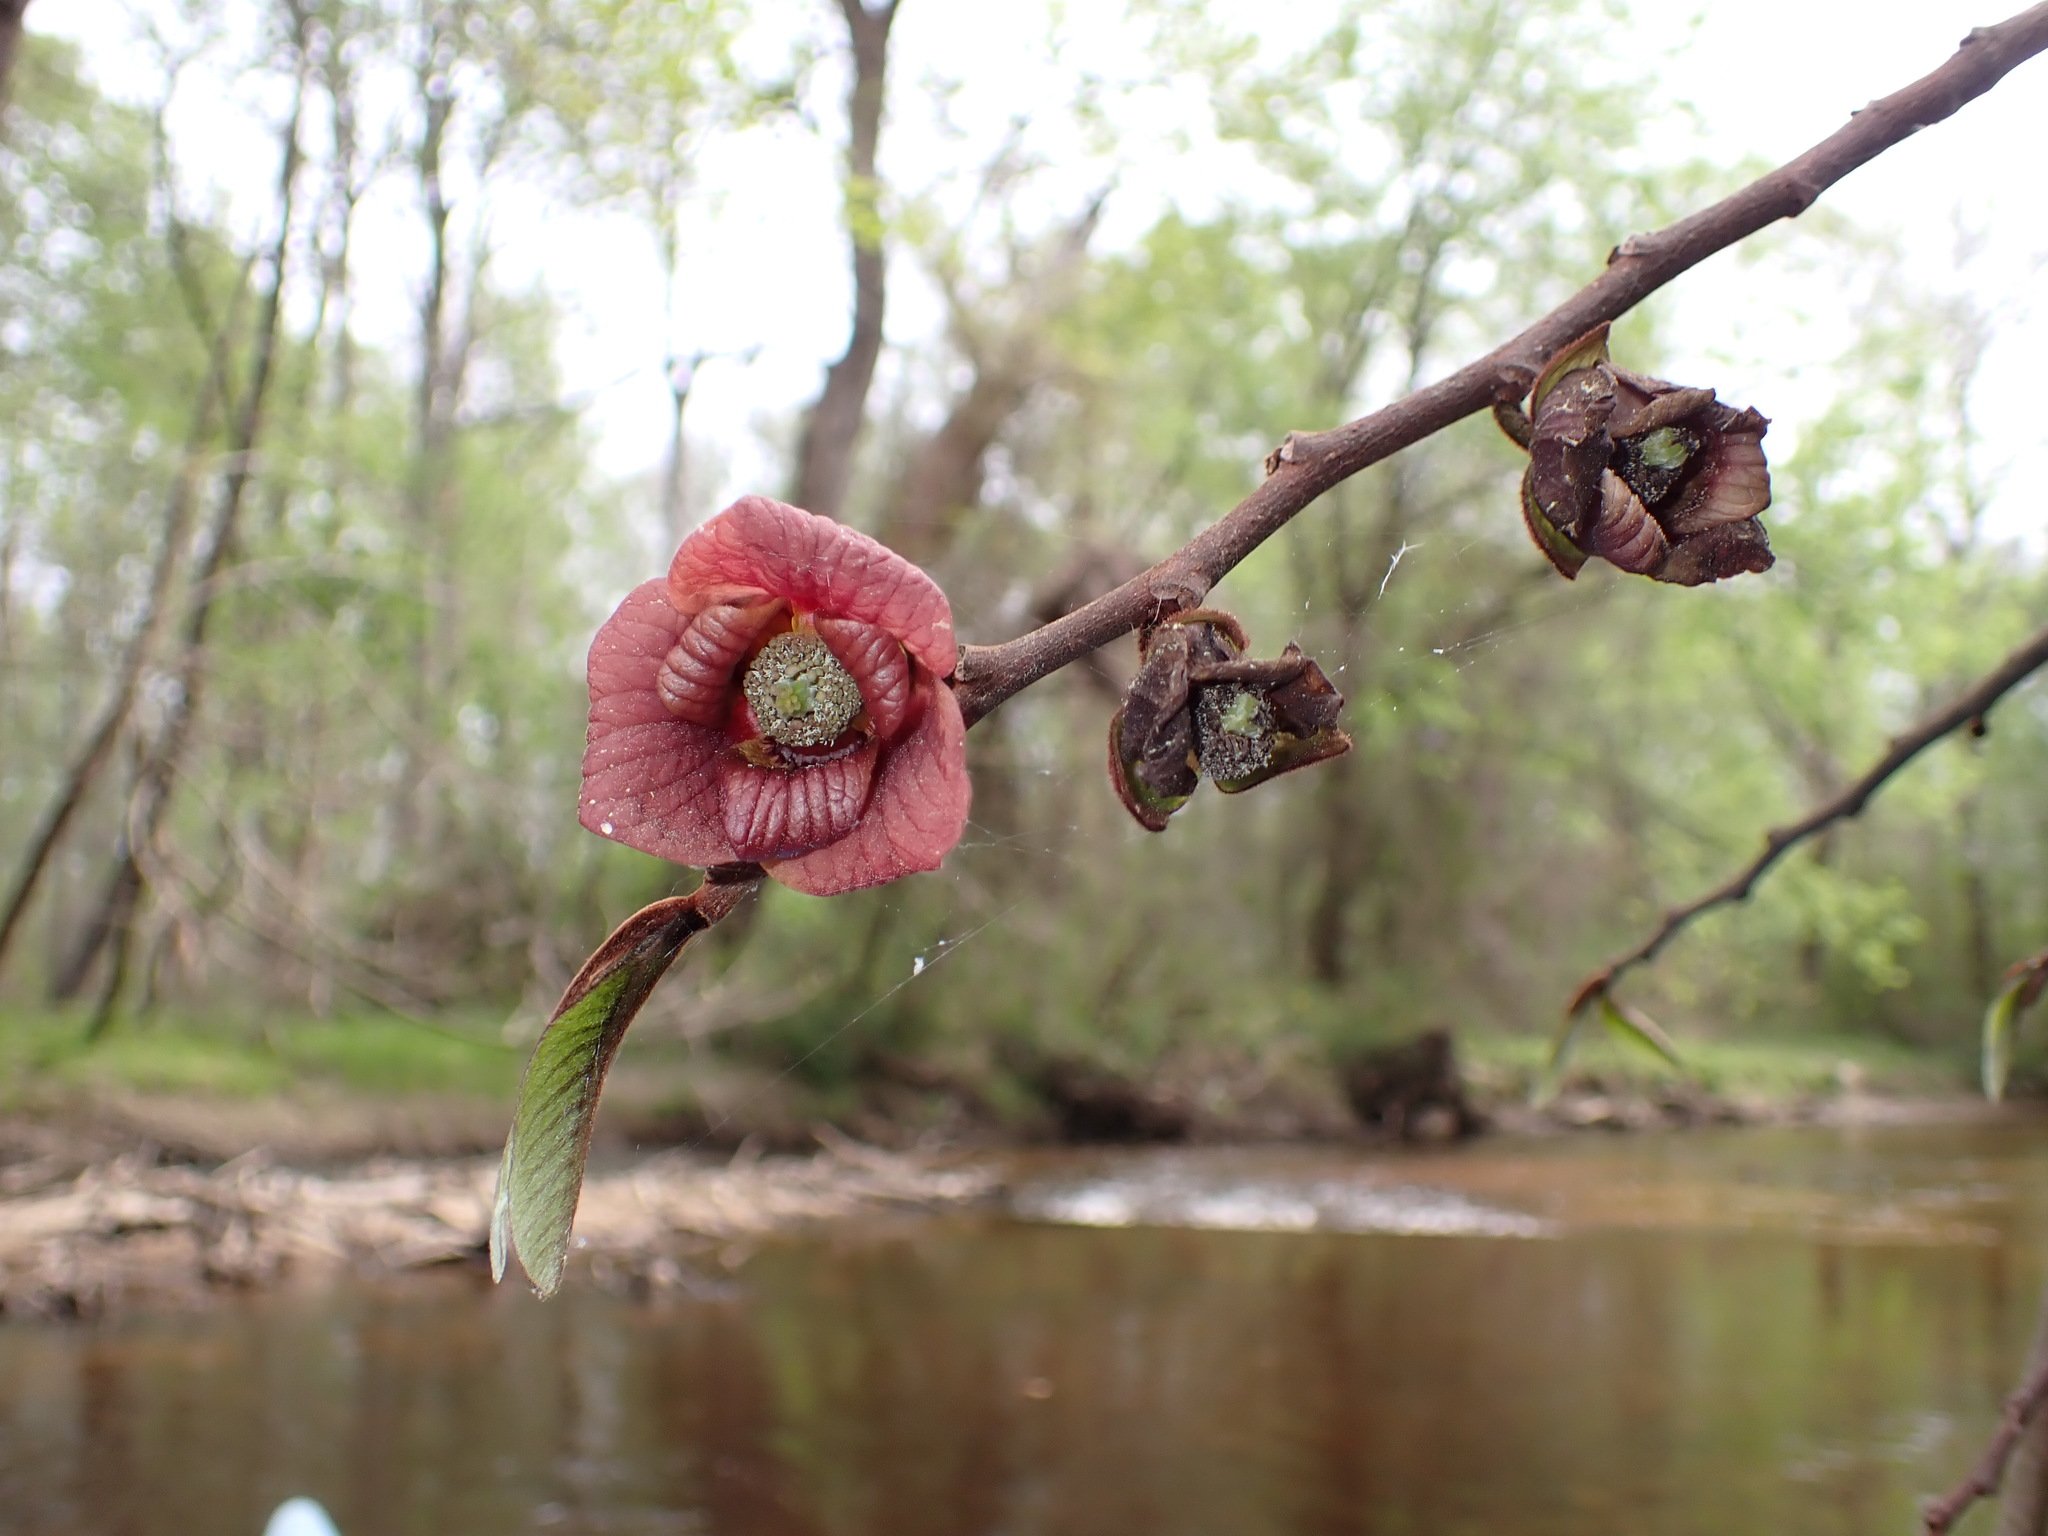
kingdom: Plantae
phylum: Tracheophyta
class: Magnoliopsida
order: Magnoliales
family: Annonaceae
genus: Asimina
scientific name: Asimina triloba
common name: Dog-banana
